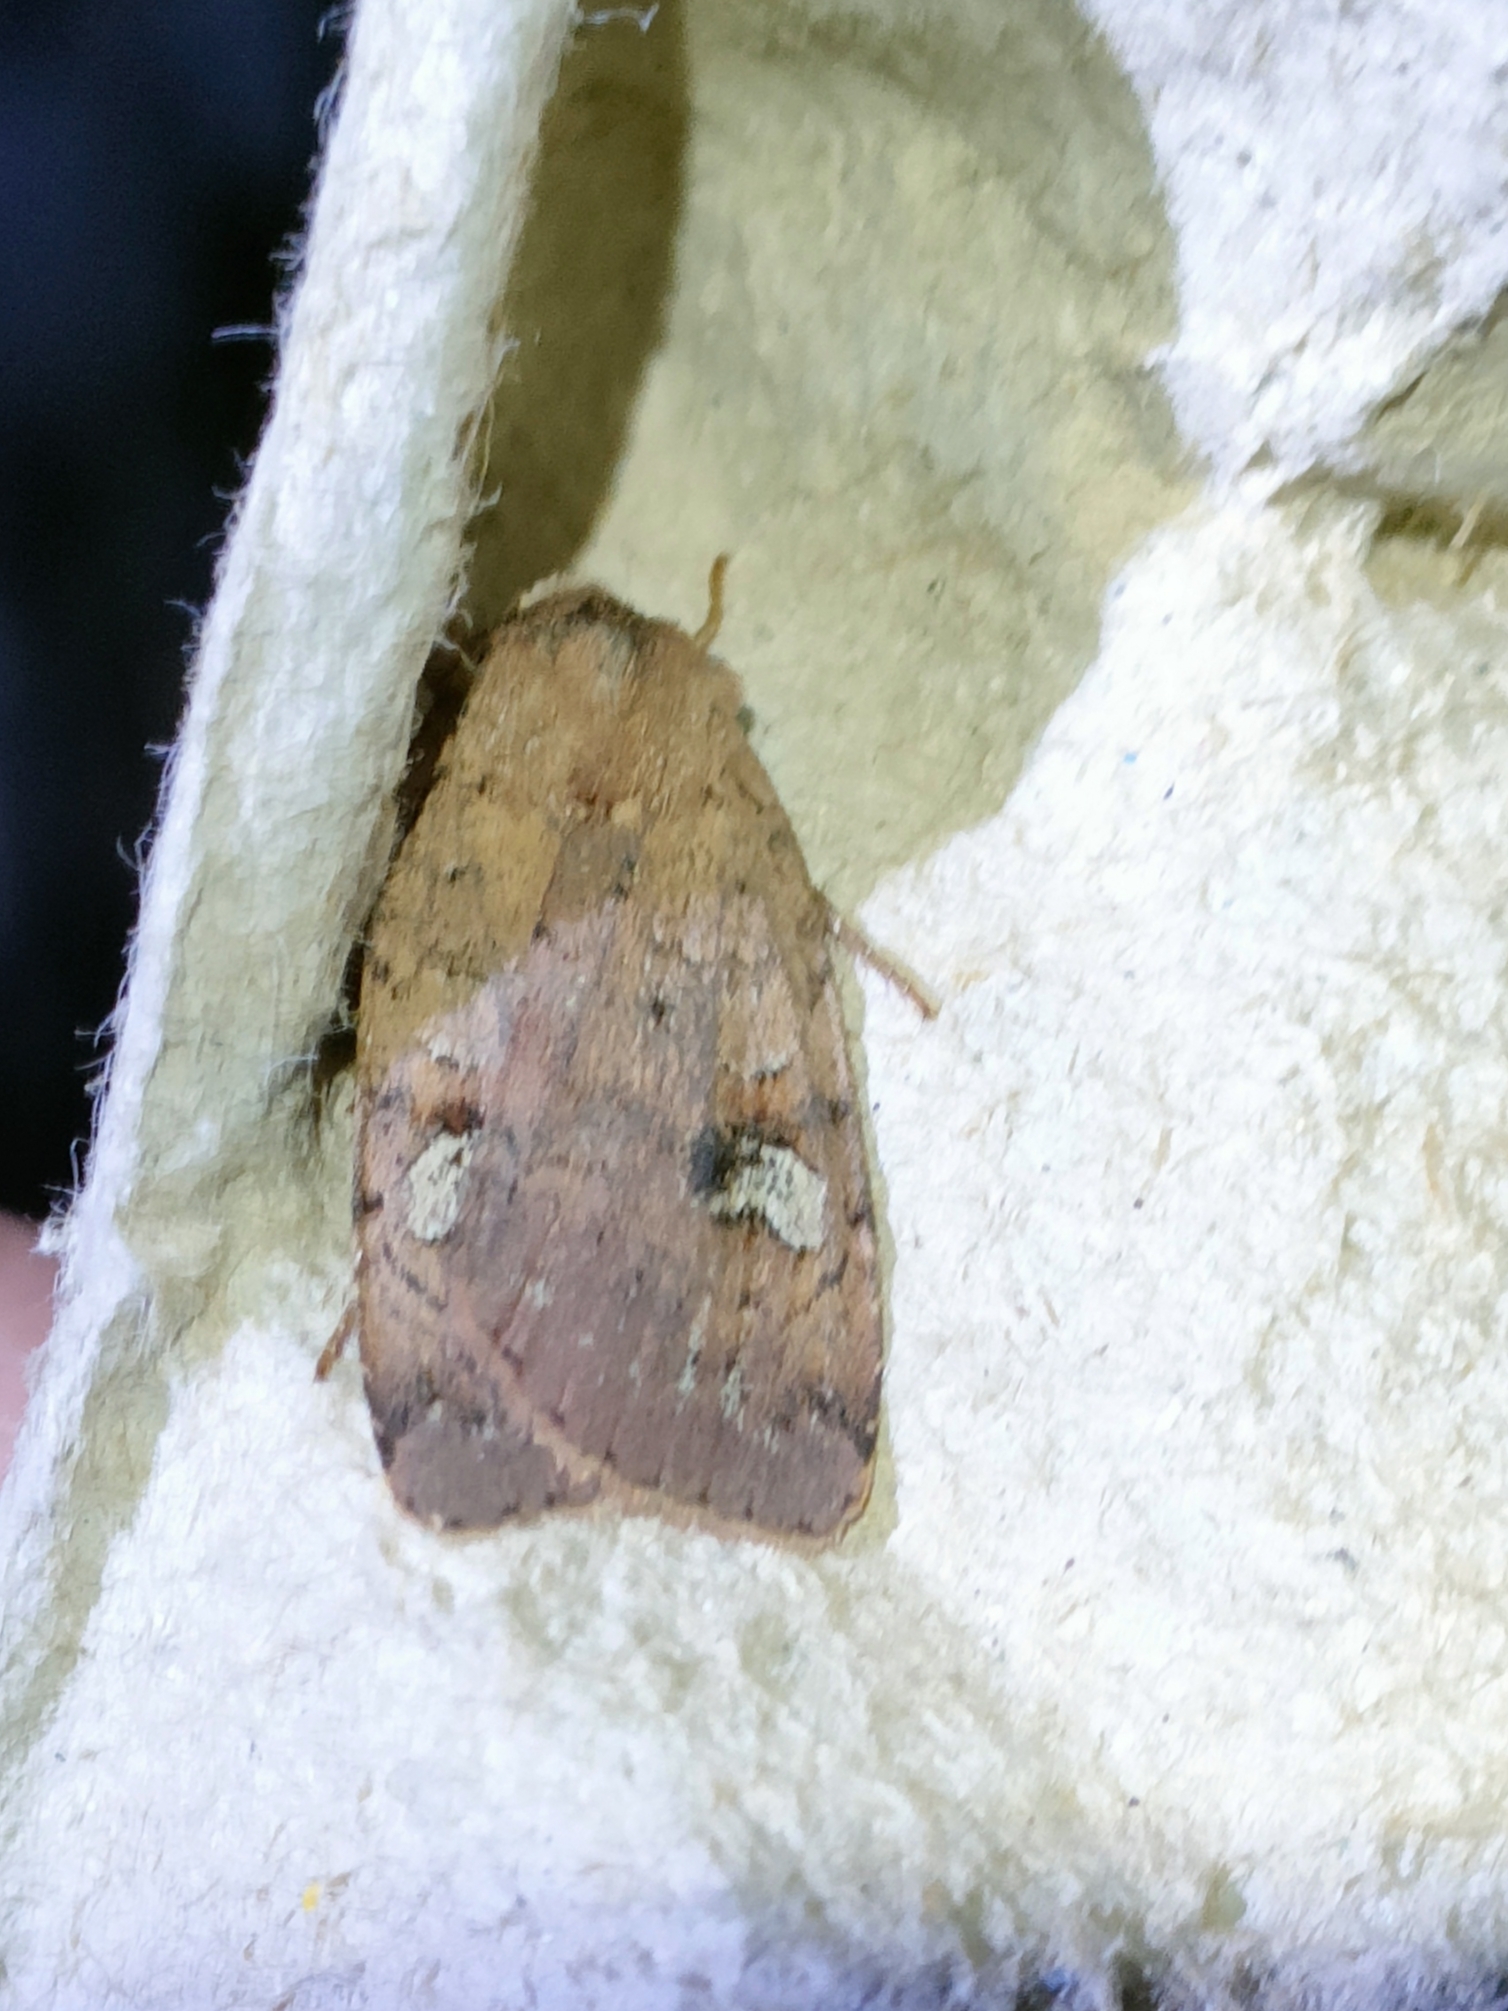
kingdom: Animalia
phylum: Arthropoda
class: Insecta
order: Lepidoptera
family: Noctuidae
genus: Diarsia
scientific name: Diarsia guadarramensis
